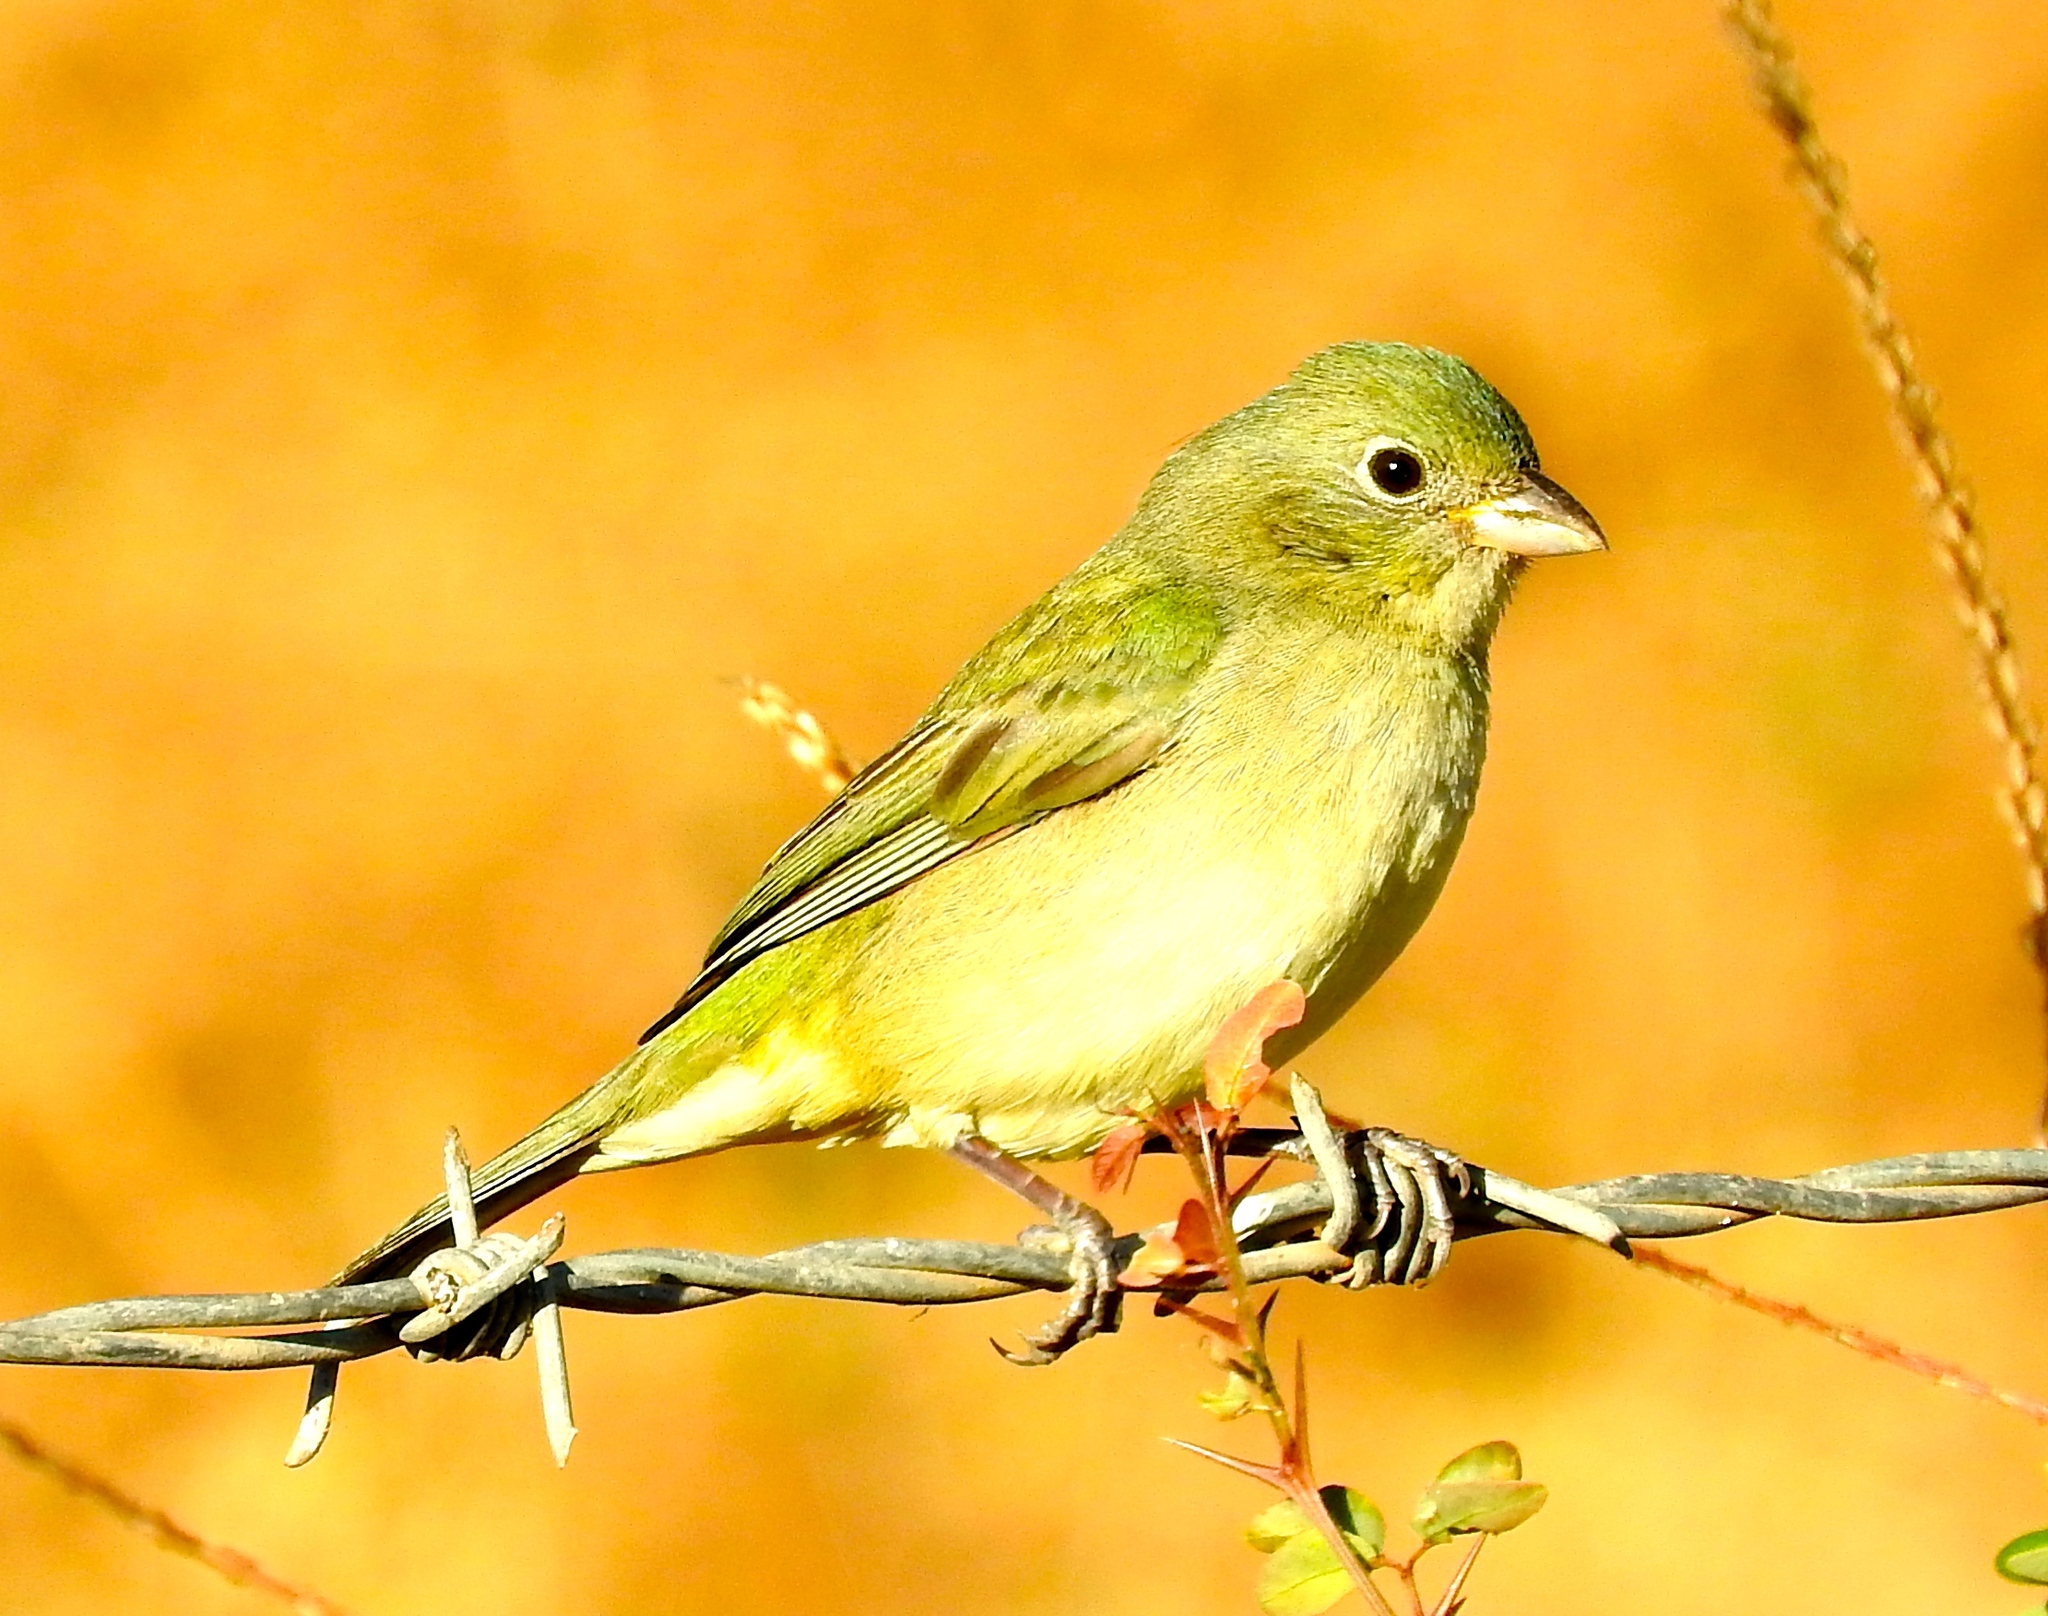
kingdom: Animalia
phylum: Chordata
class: Aves
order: Passeriformes
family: Cardinalidae
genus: Passerina
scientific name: Passerina ciris
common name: Painted bunting
